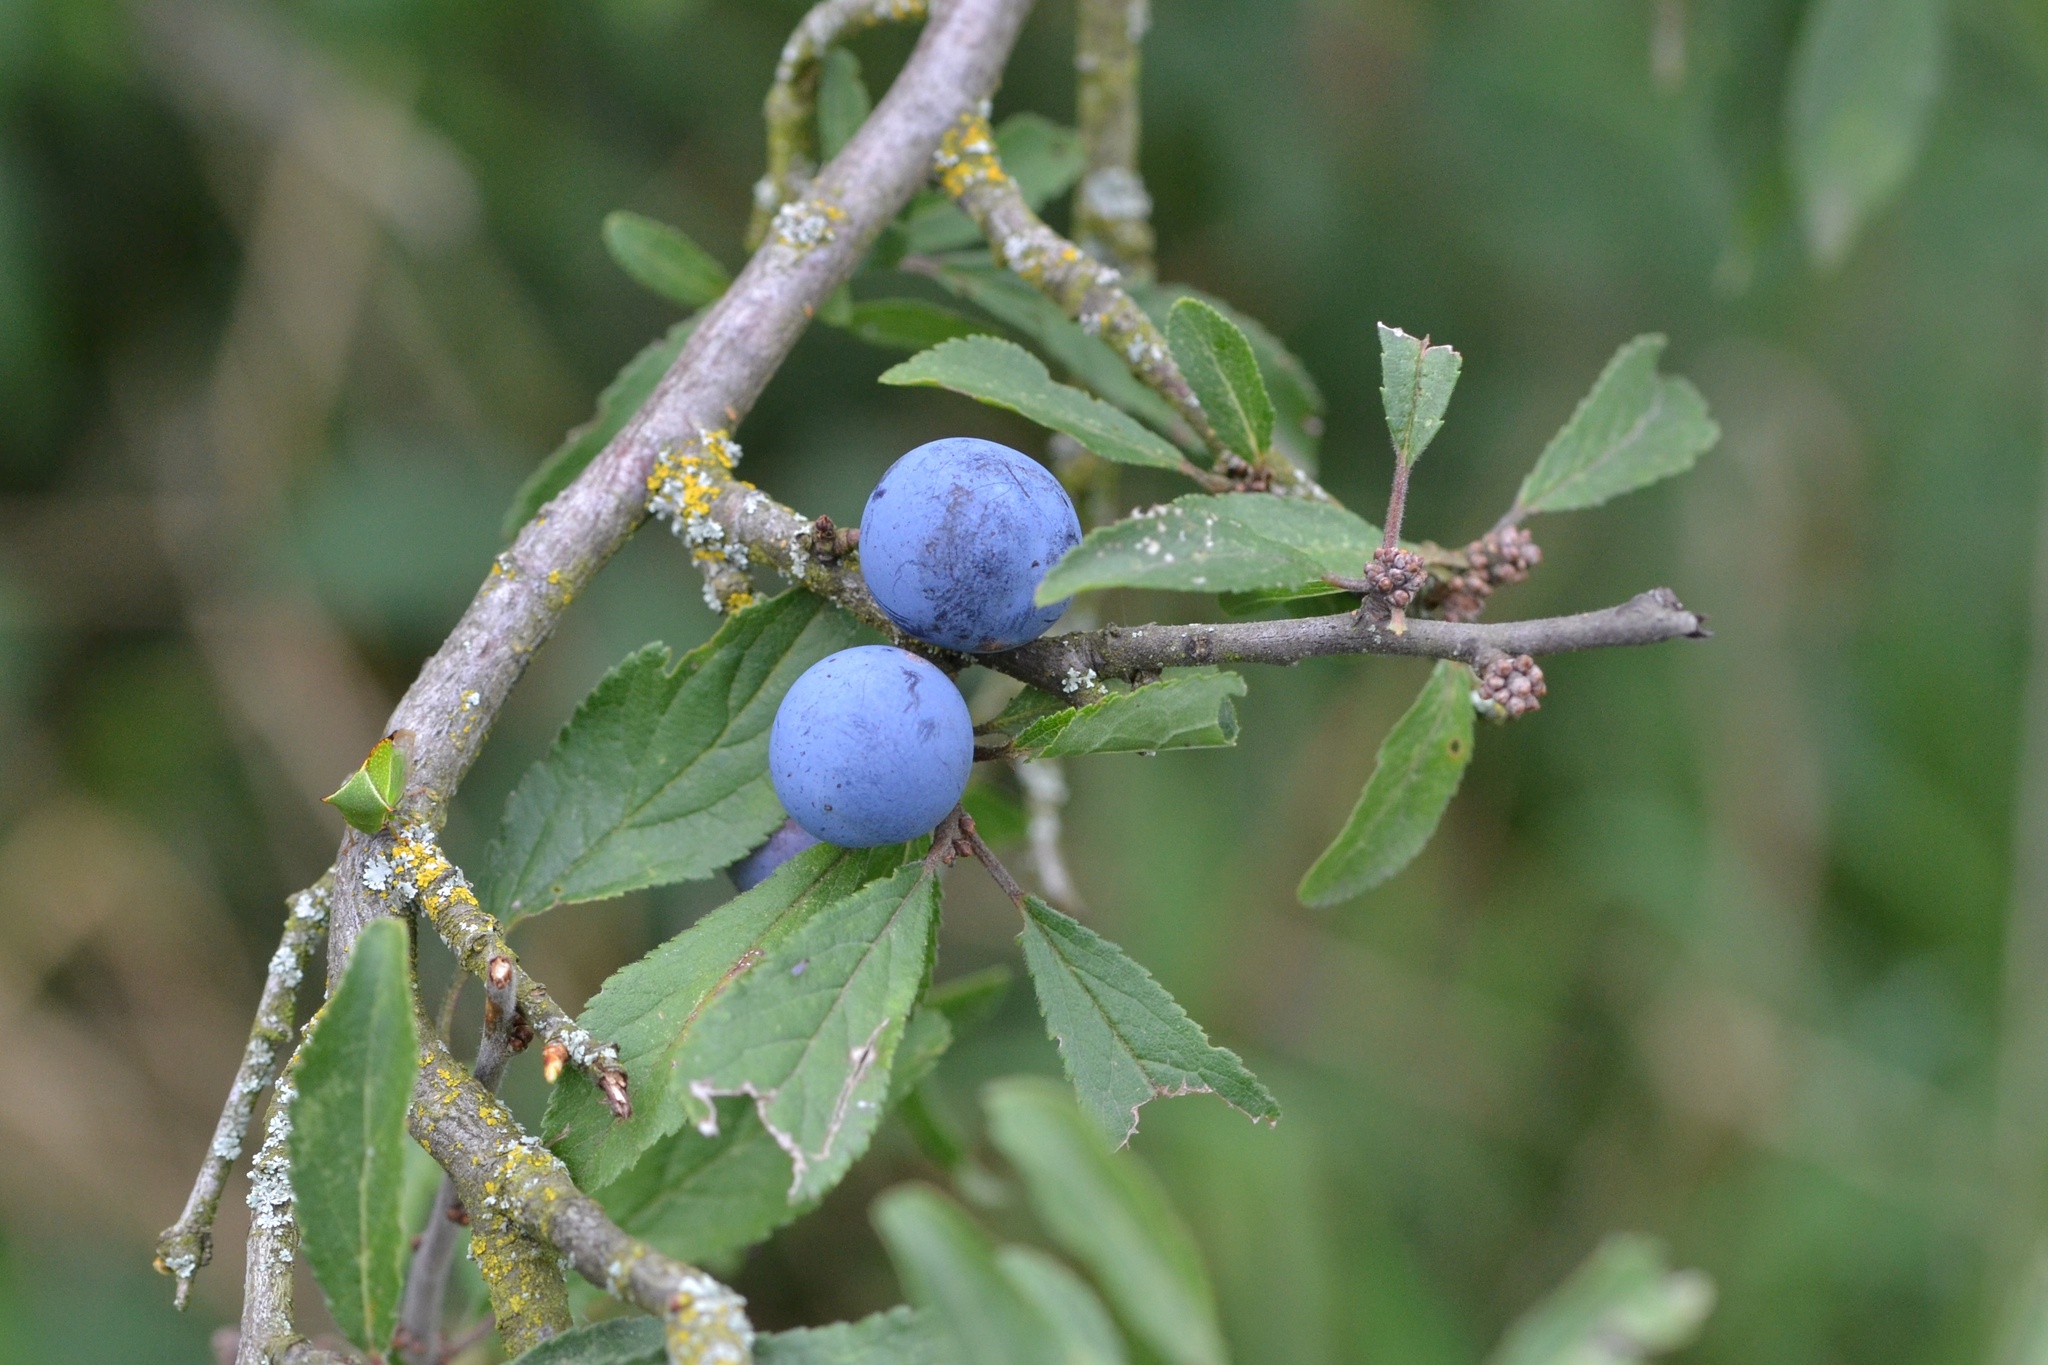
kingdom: Plantae
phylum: Tracheophyta
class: Magnoliopsida
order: Rosales
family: Rosaceae
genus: Prunus
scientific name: Prunus spinosa
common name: Blackthorn
